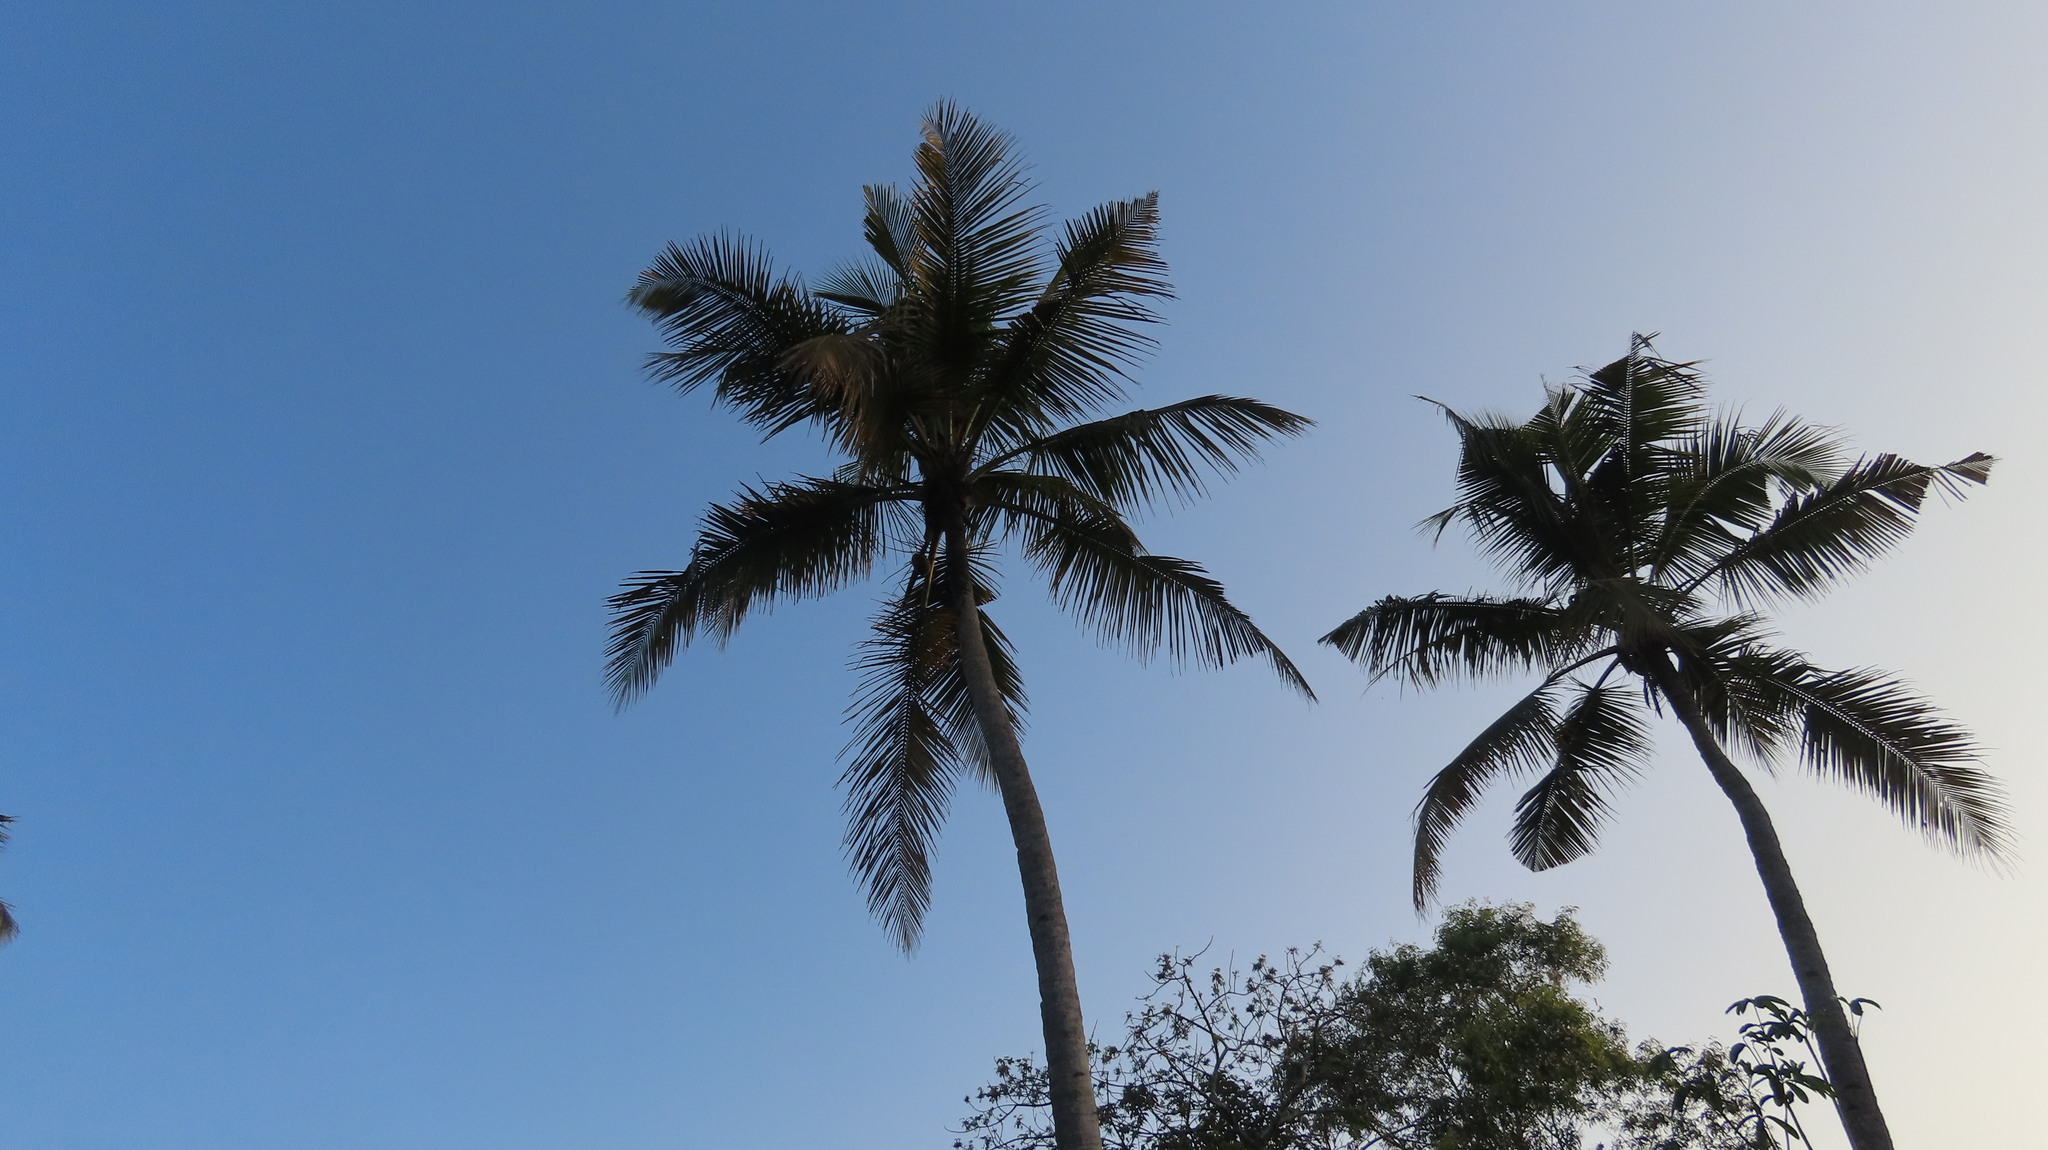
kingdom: Plantae
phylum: Tracheophyta
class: Liliopsida
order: Arecales
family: Arecaceae
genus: Cocos
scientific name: Cocos nucifera
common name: Coconut palm
